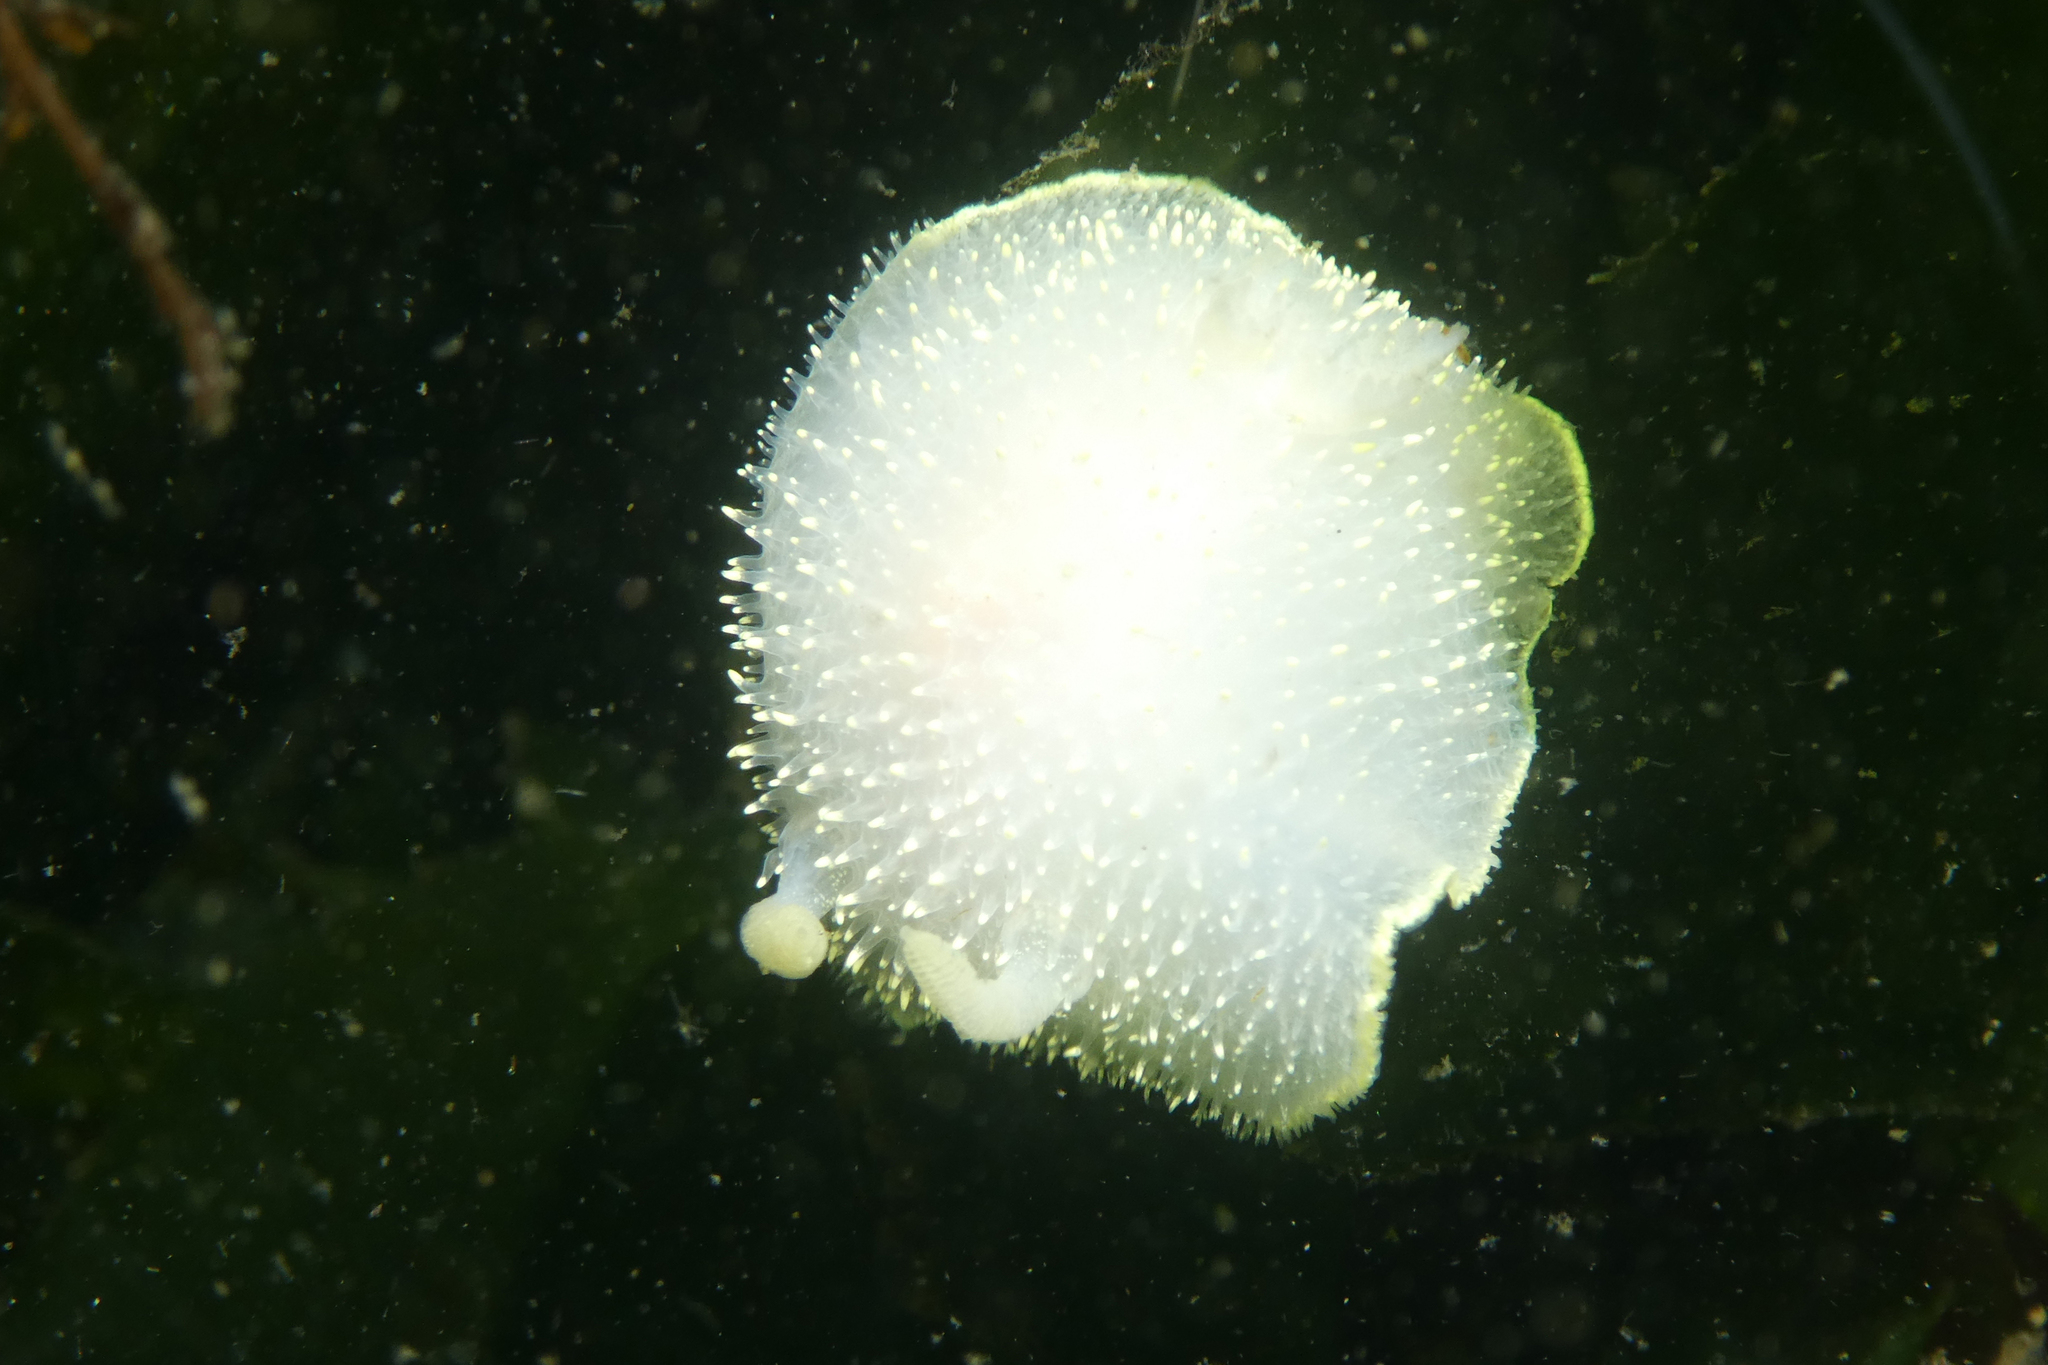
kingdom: Animalia
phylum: Mollusca
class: Gastropoda
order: Nudibranchia
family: Onchidorididae
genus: Acanthodoris
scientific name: Acanthodoris hudsoni
